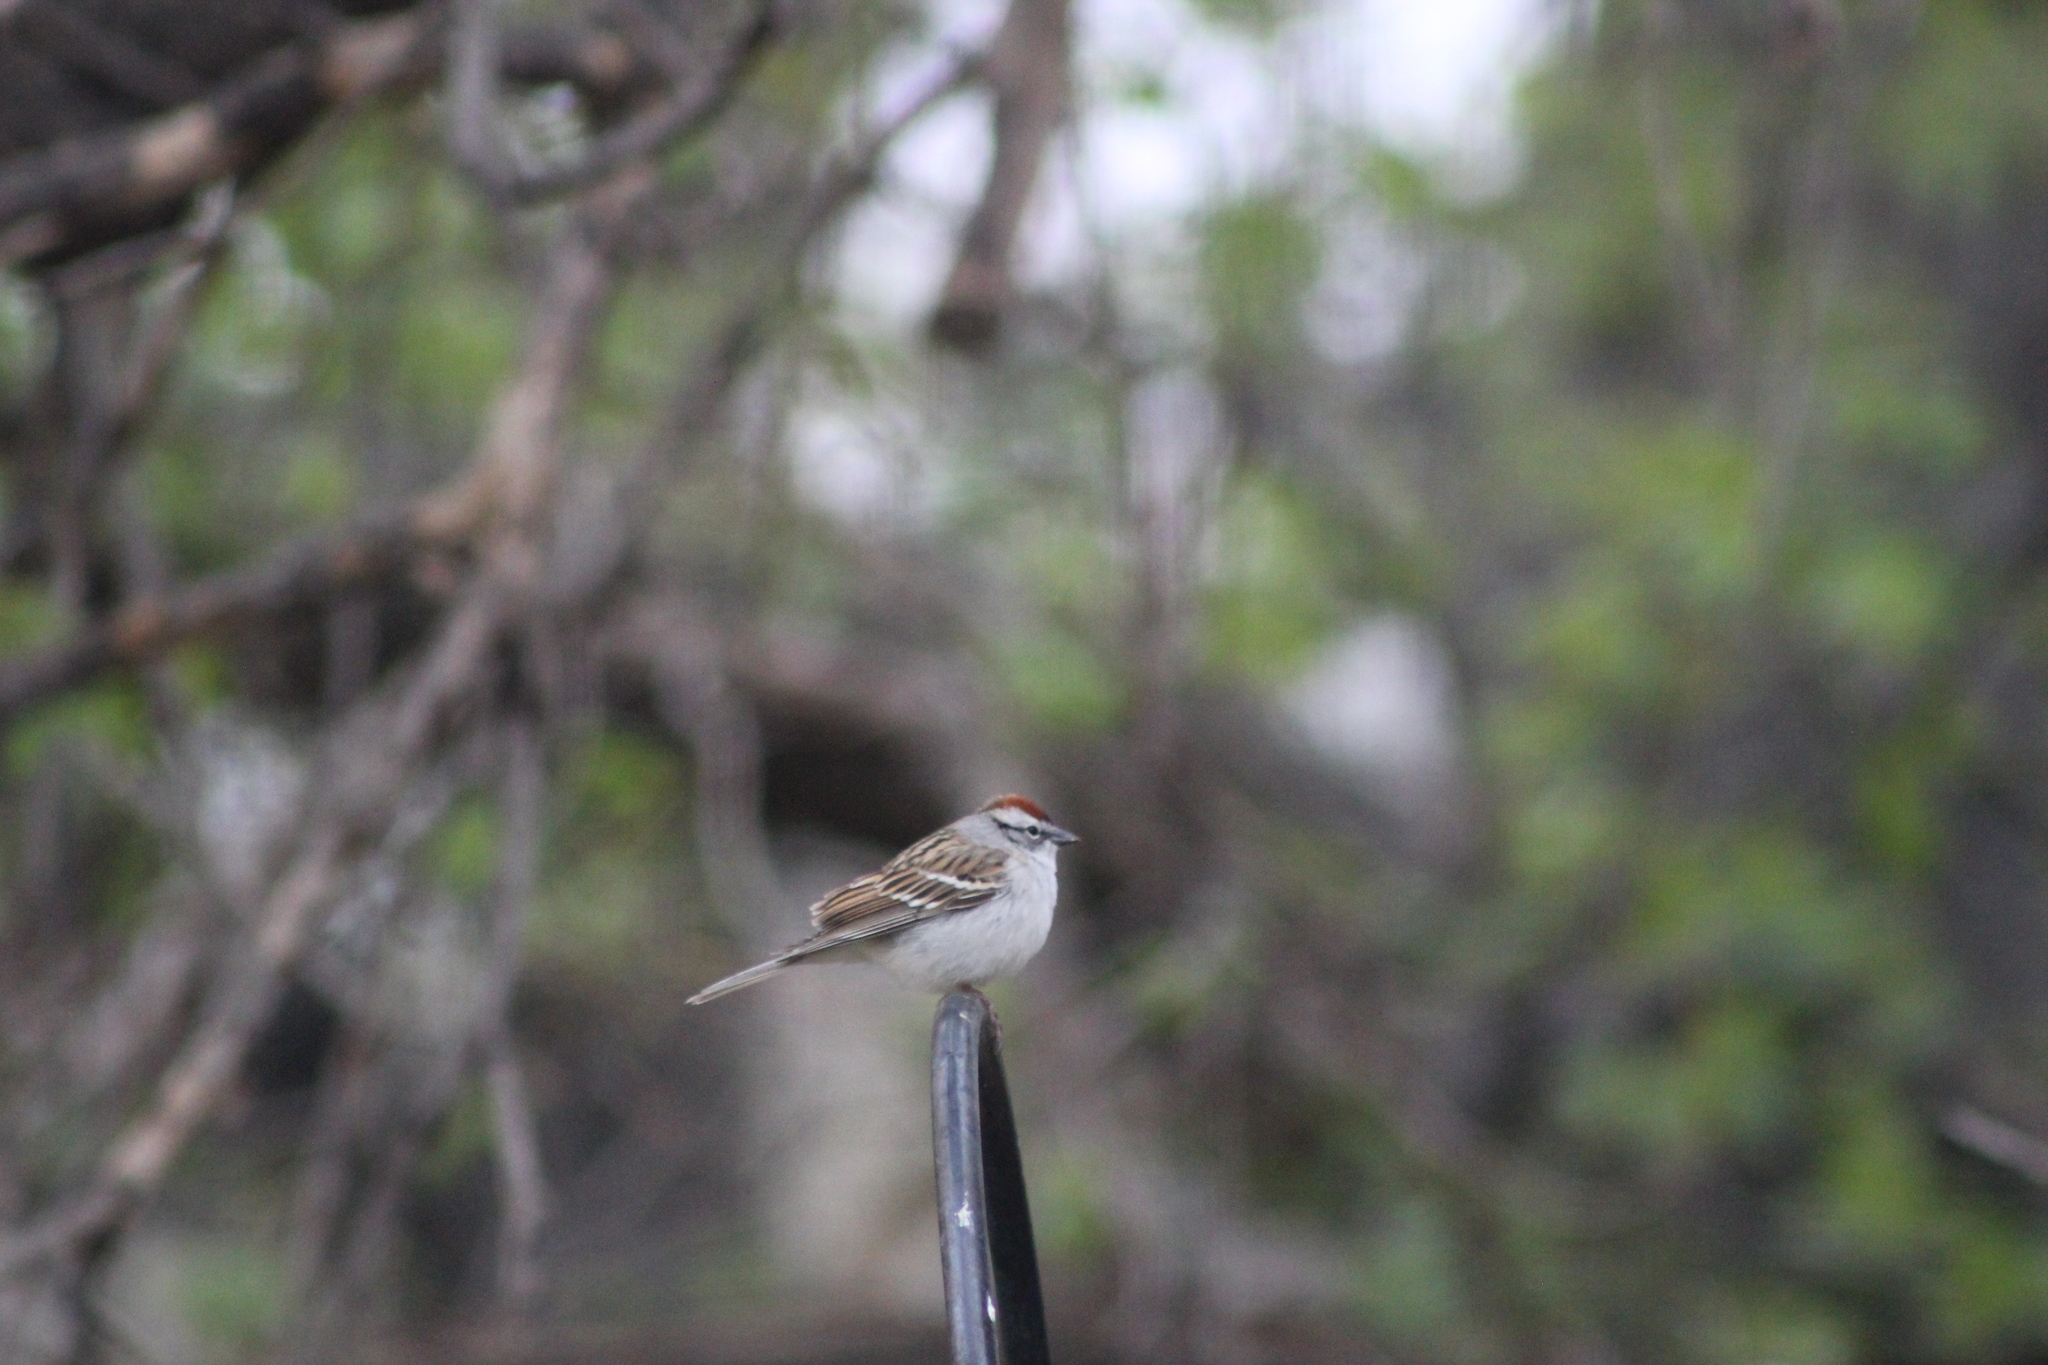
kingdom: Animalia
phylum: Chordata
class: Aves
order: Passeriformes
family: Passerellidae
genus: Spizella
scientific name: Spizella passerina
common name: Chipping sparrow
